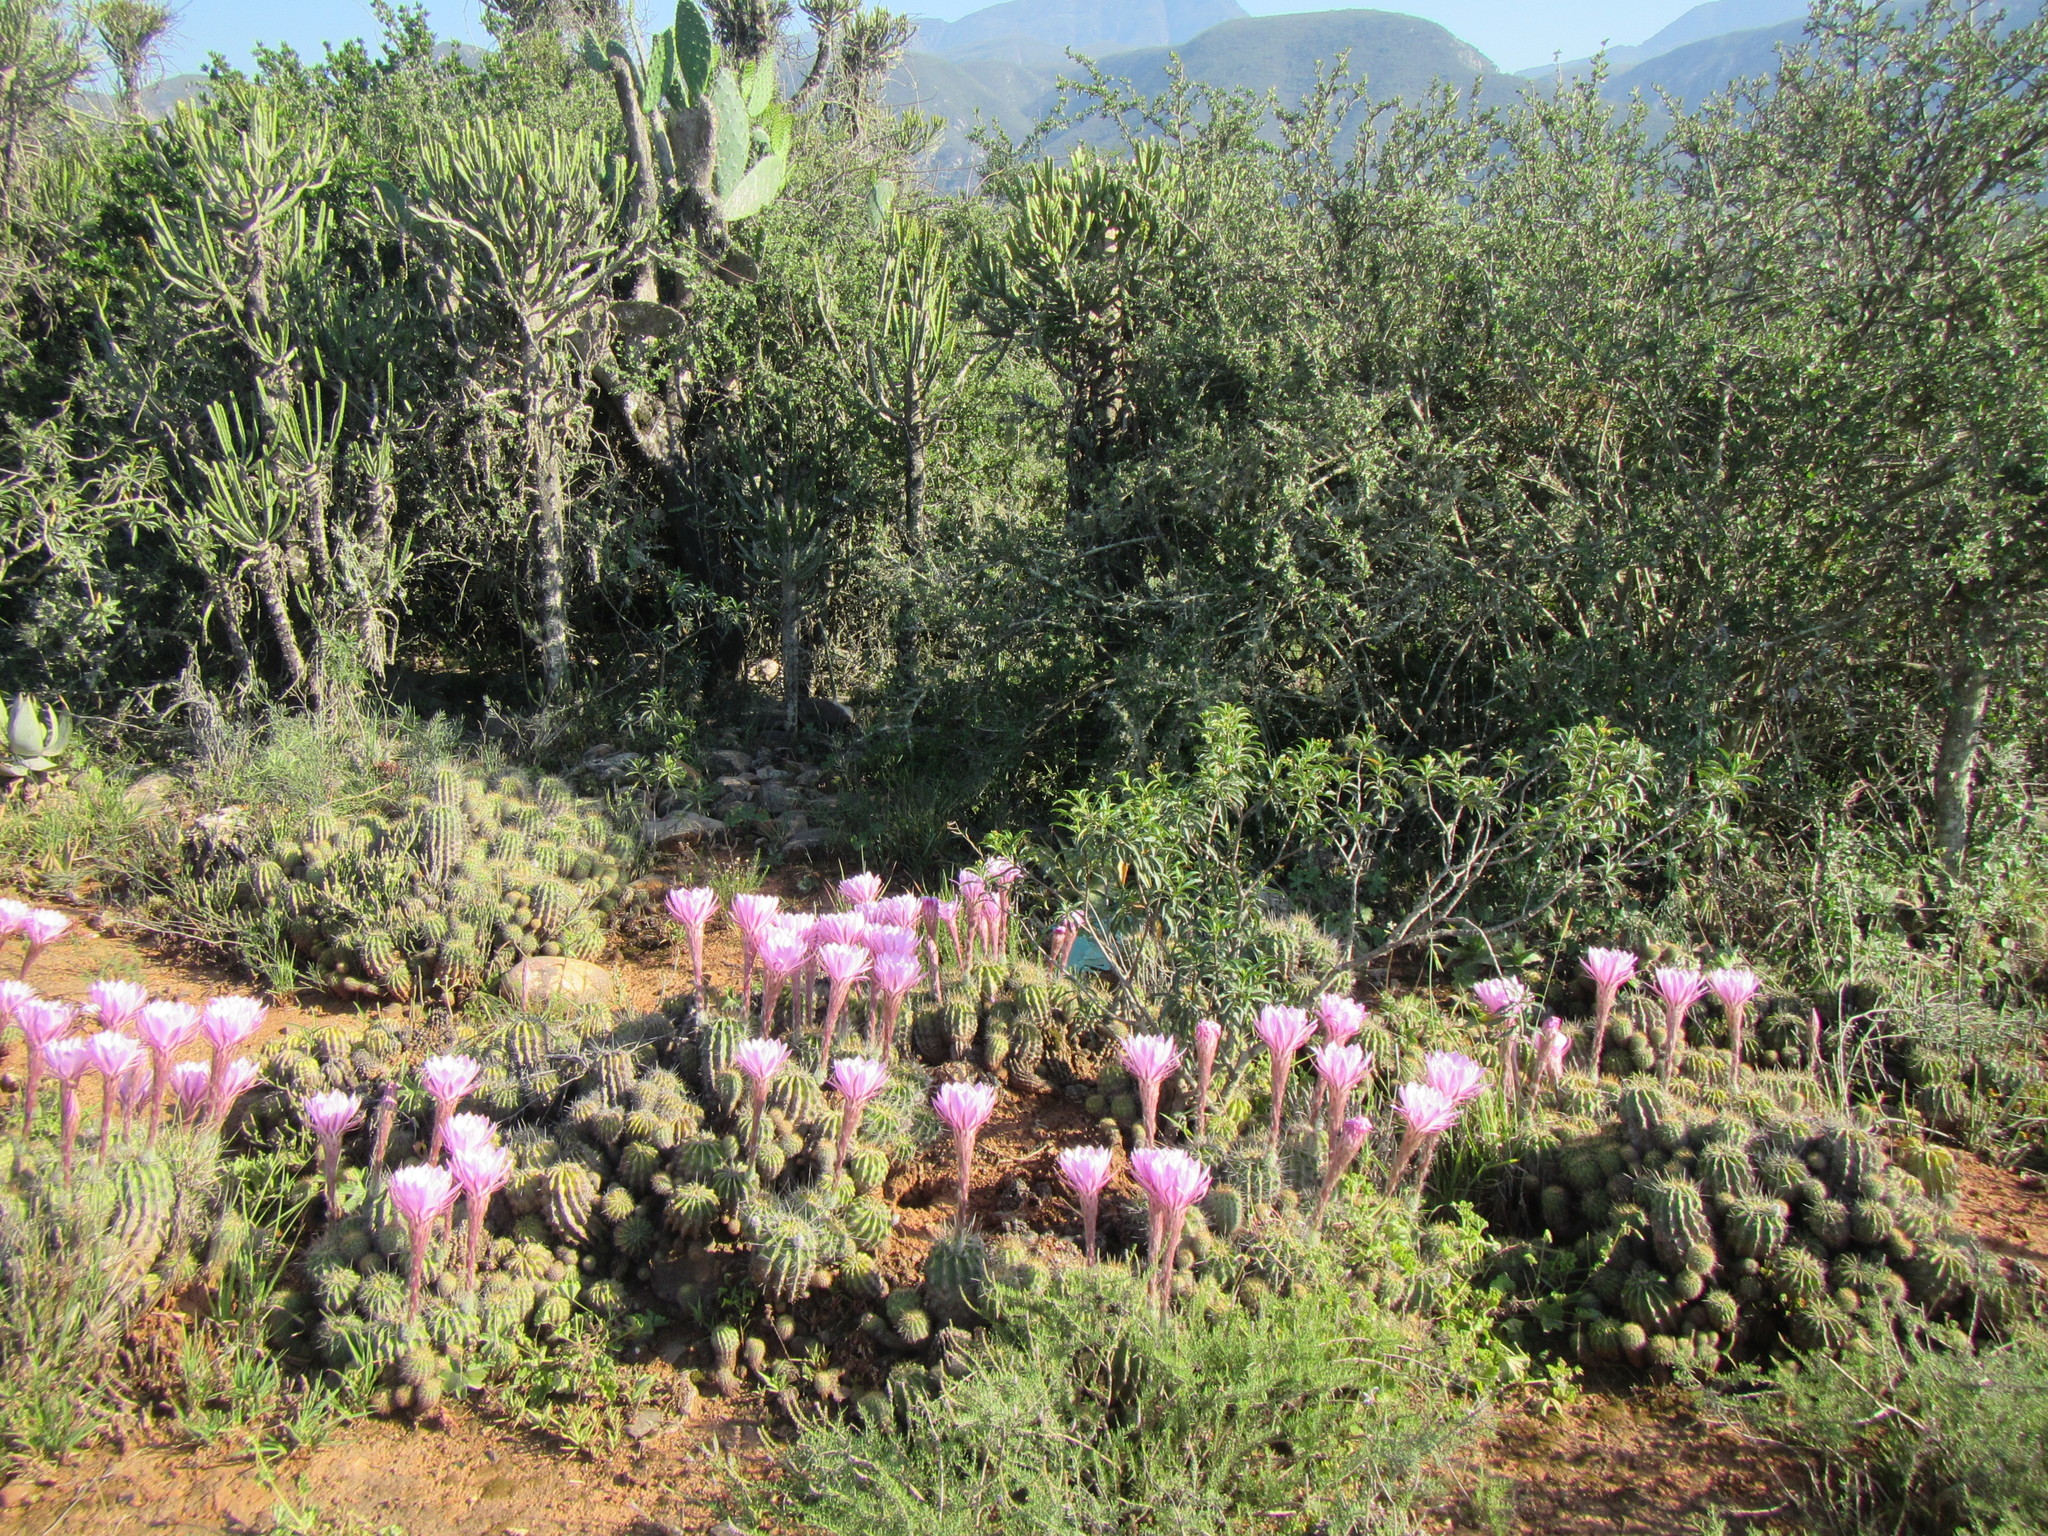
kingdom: Plantae
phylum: Tracheophyta
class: Magnoliopsida
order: Caryophyllales
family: Cactaceae
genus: Echinopsis
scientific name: Echinopsis oxygona
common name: Red easter-lily cactus
